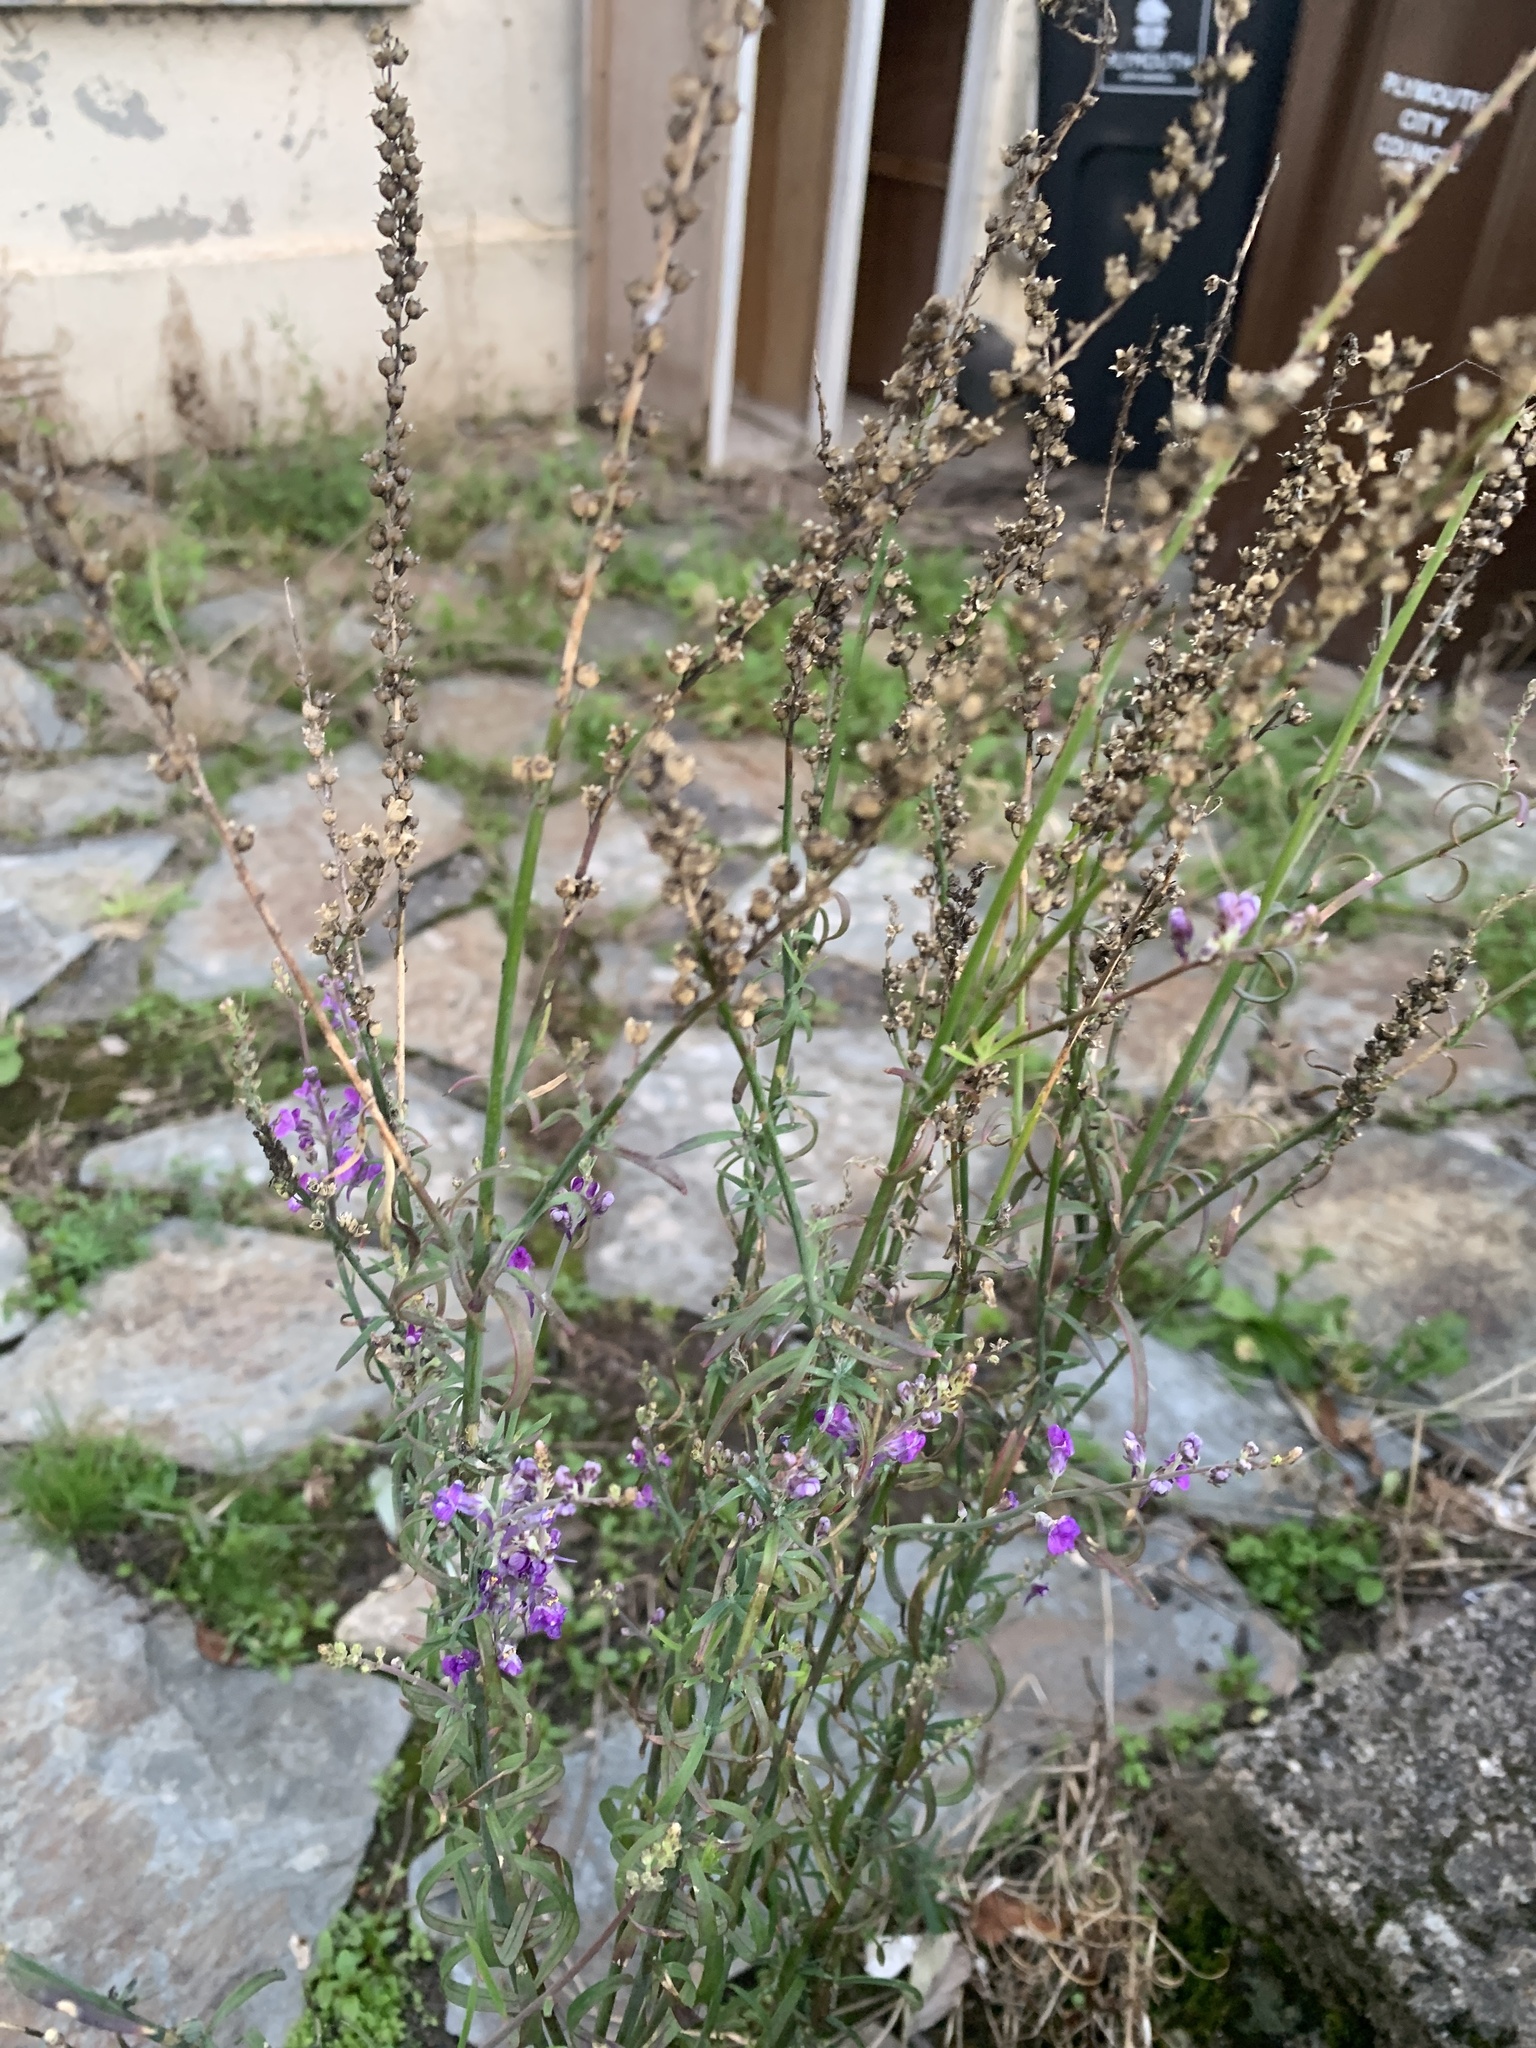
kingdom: Plantae
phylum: Tracheophyta
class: Magnoliopsida
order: Lamiales
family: Plantaginaceae
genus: Linaria
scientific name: Linaria purpurea
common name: Purple toadflax
